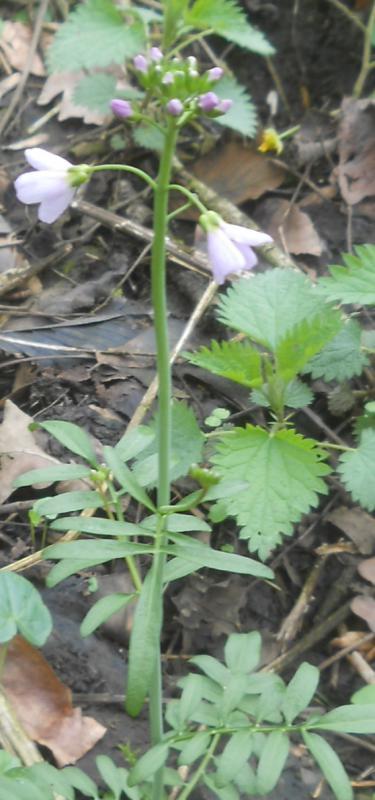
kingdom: Plantae
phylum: Tracheophyta
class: Magnoliopsida
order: Brassicales
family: Brassicaceae
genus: Cardamine
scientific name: Cardamine pratensis
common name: Cuckoo flower
